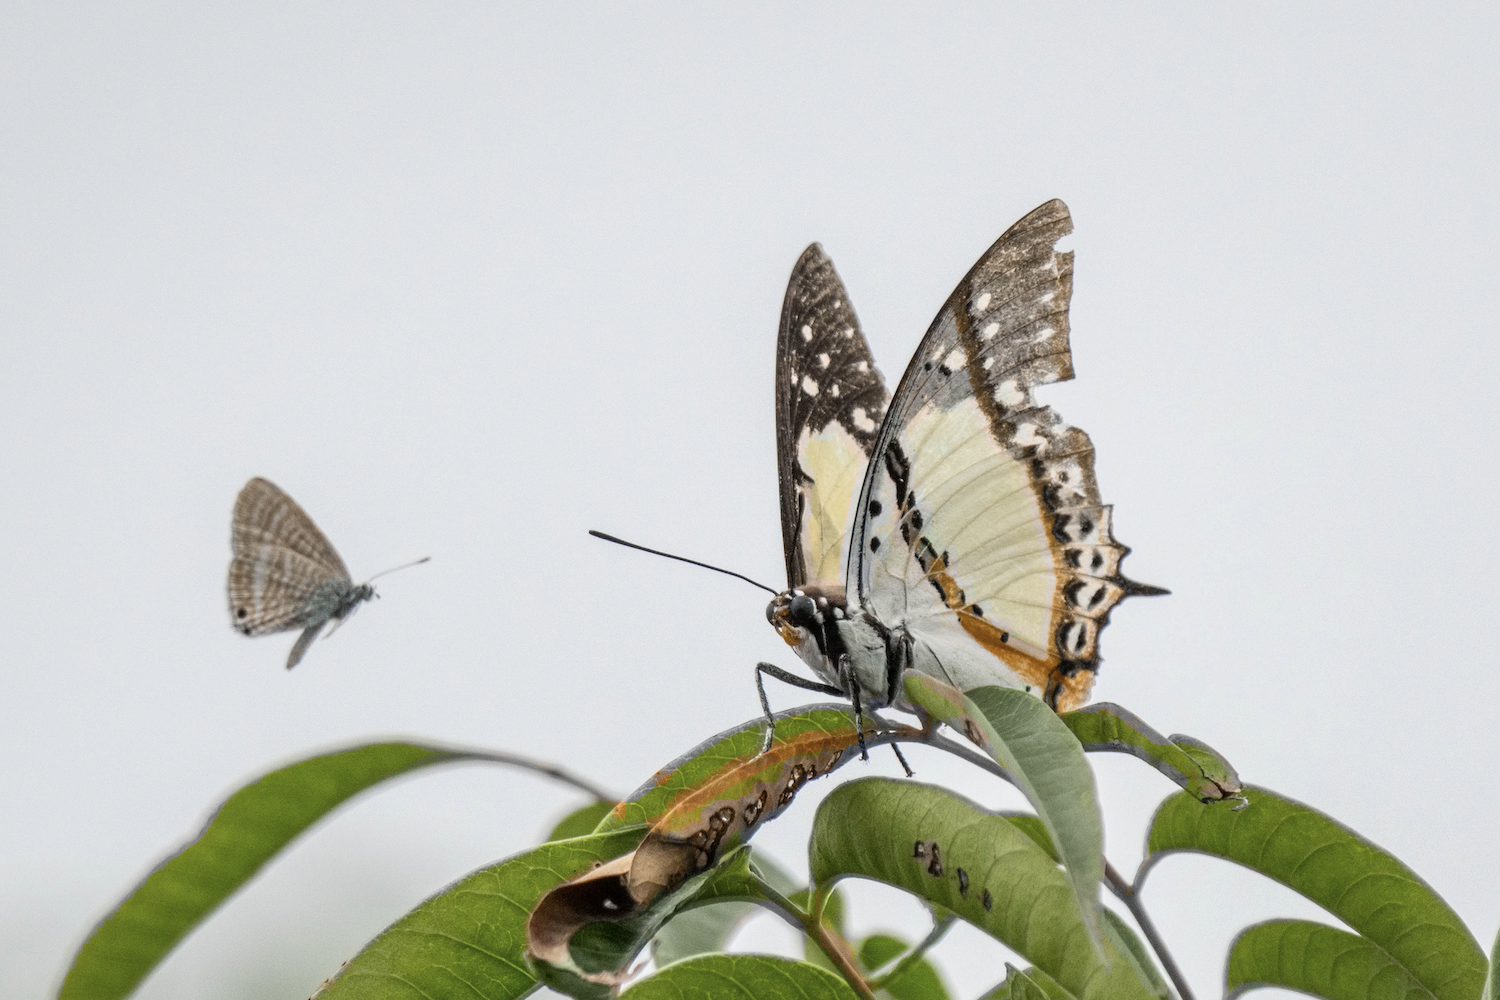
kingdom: Animalia
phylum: Arthropoda
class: Insecta
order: Lepidoptera
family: Nymphalidae
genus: Polyura
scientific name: Polyura nepenthes
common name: Shan nawab
